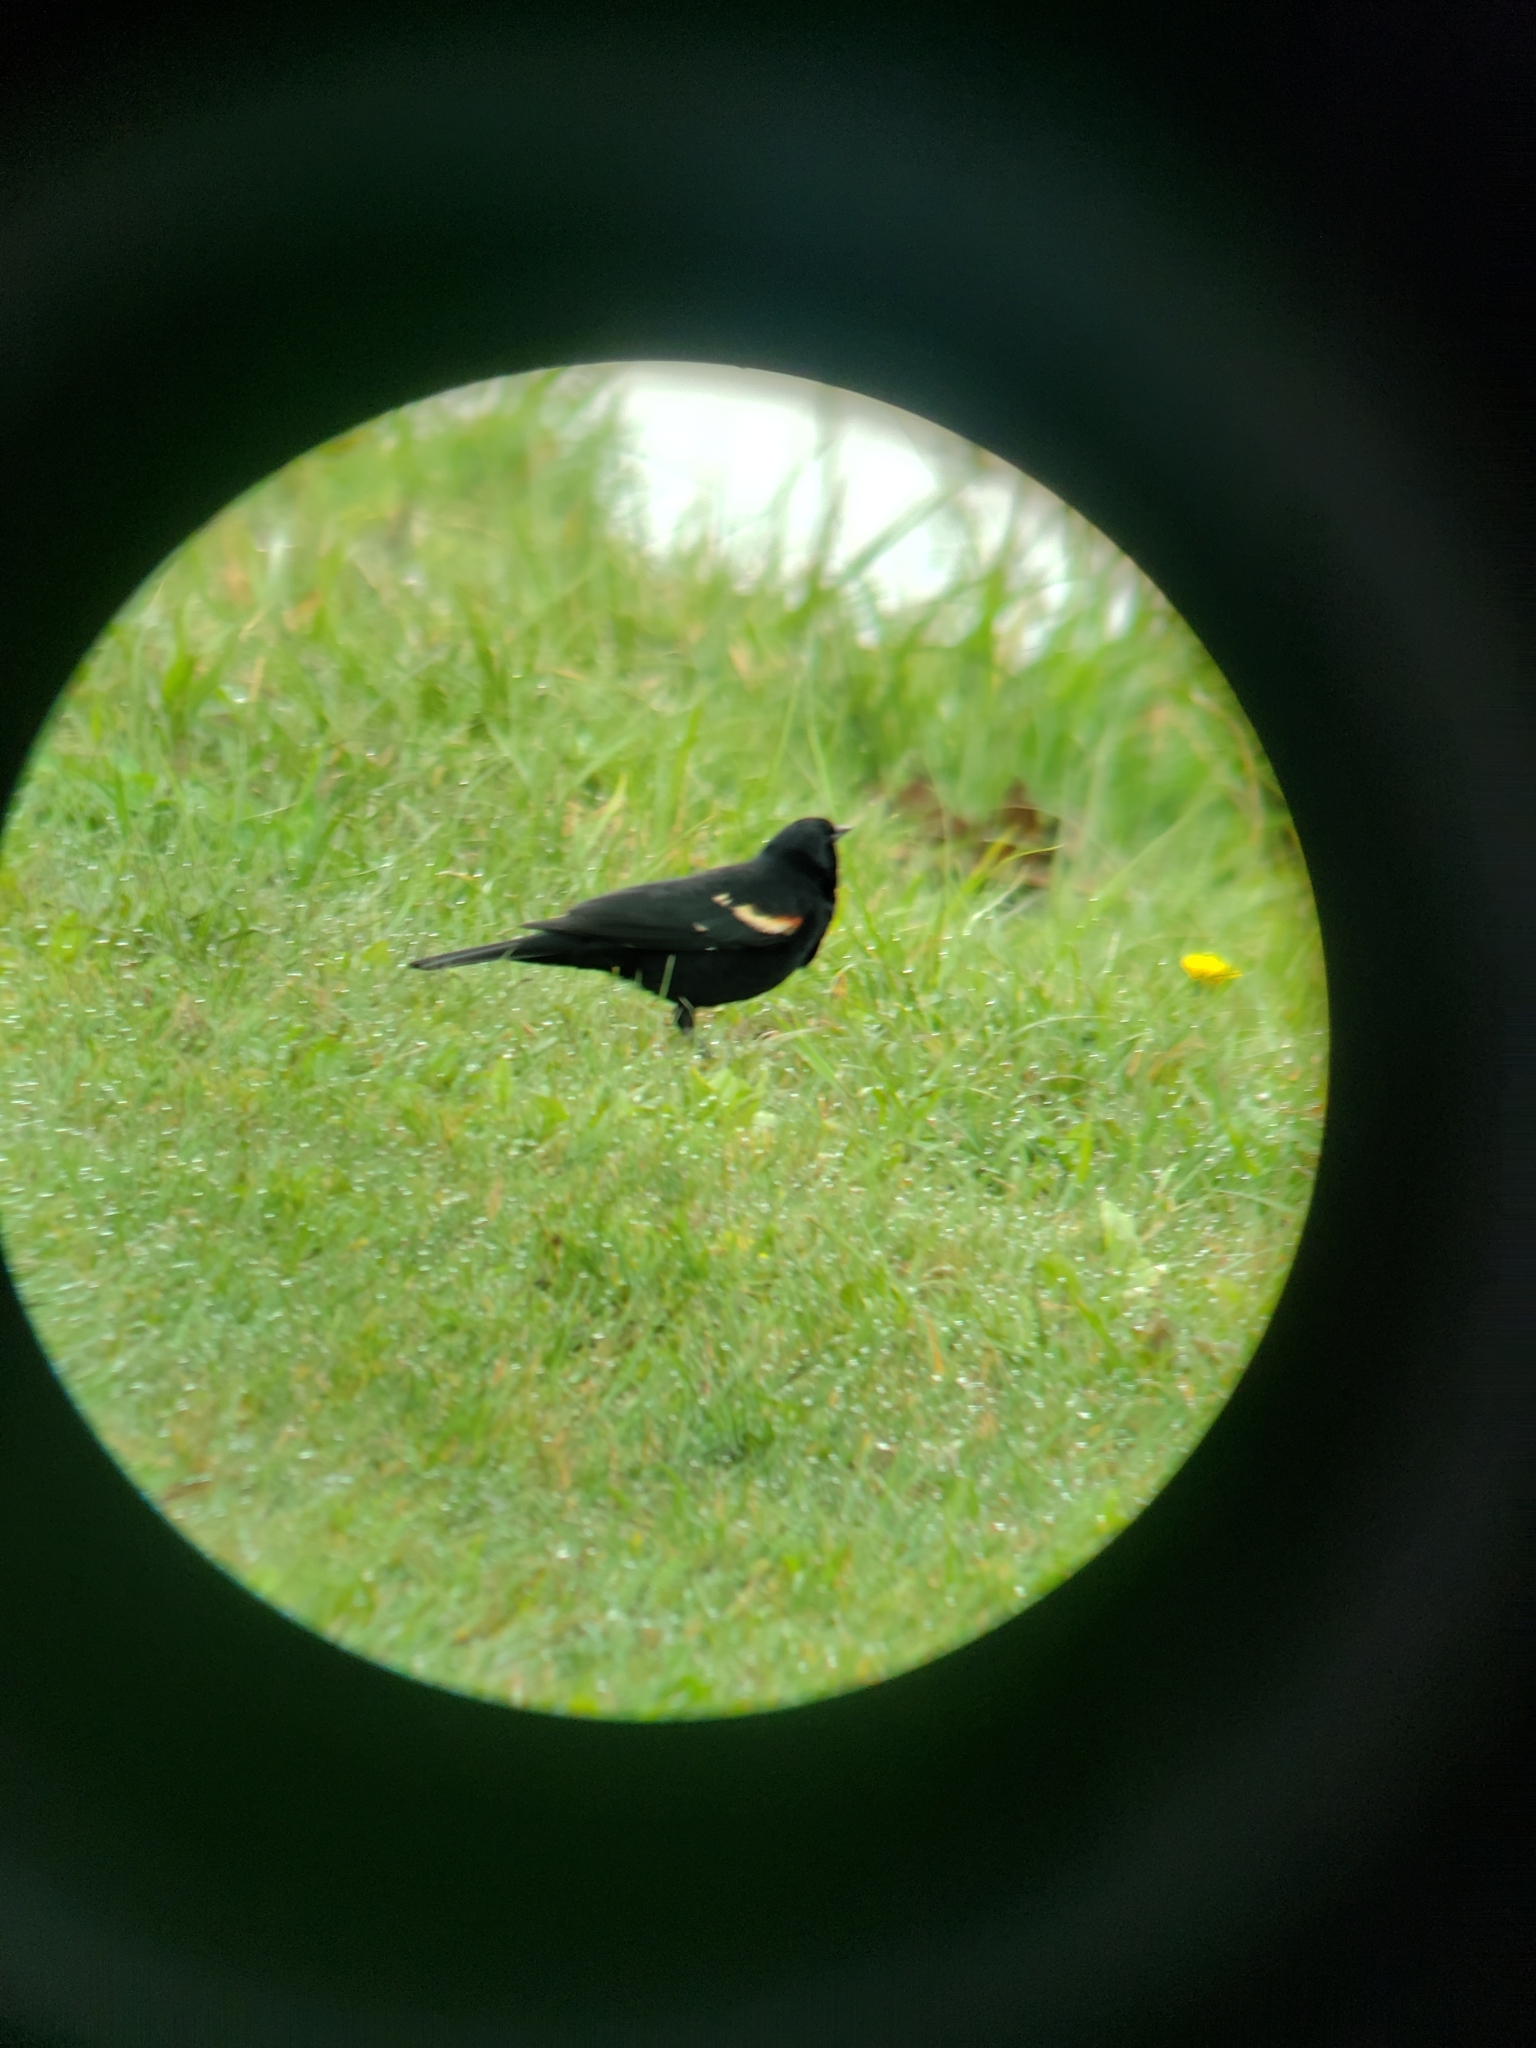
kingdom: Animalia
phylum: Chordata
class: Aves
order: Passeriformes
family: Icteridae
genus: Agelaius
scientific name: Agelaius phoeniceus
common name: Red-winged blackbird
